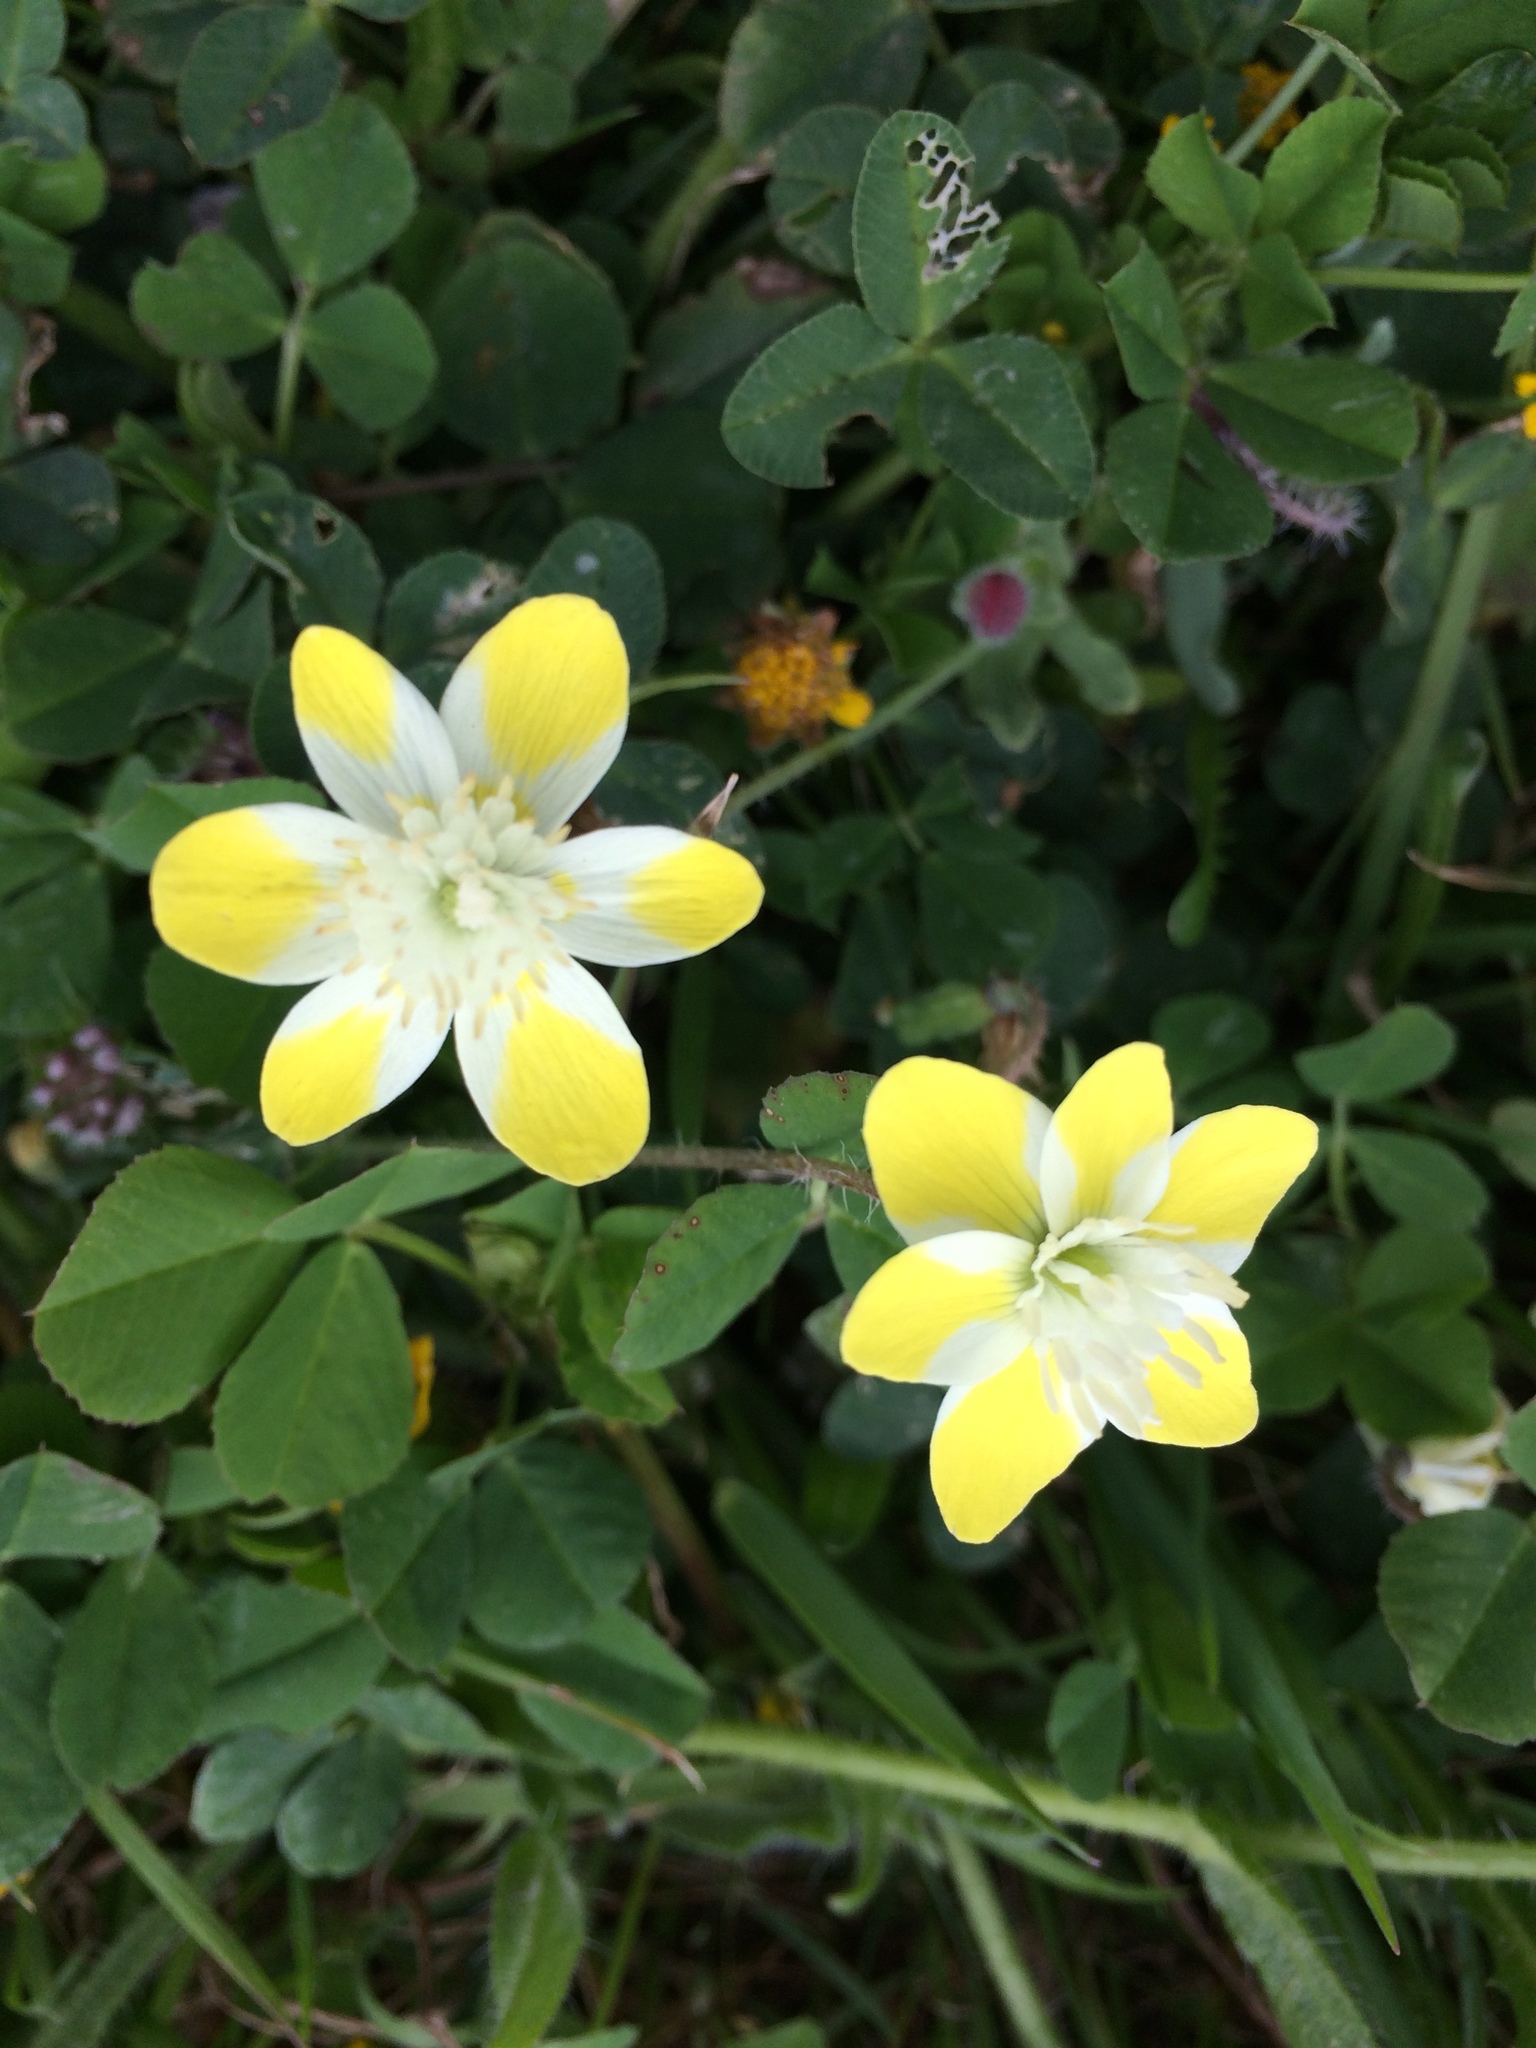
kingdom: Plantae
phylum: Tracheophyta
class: Magnoliopsida
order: Ranunculales
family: Papaveraceae
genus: Platystemon
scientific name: Platystemon californicus
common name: Cream-cups
